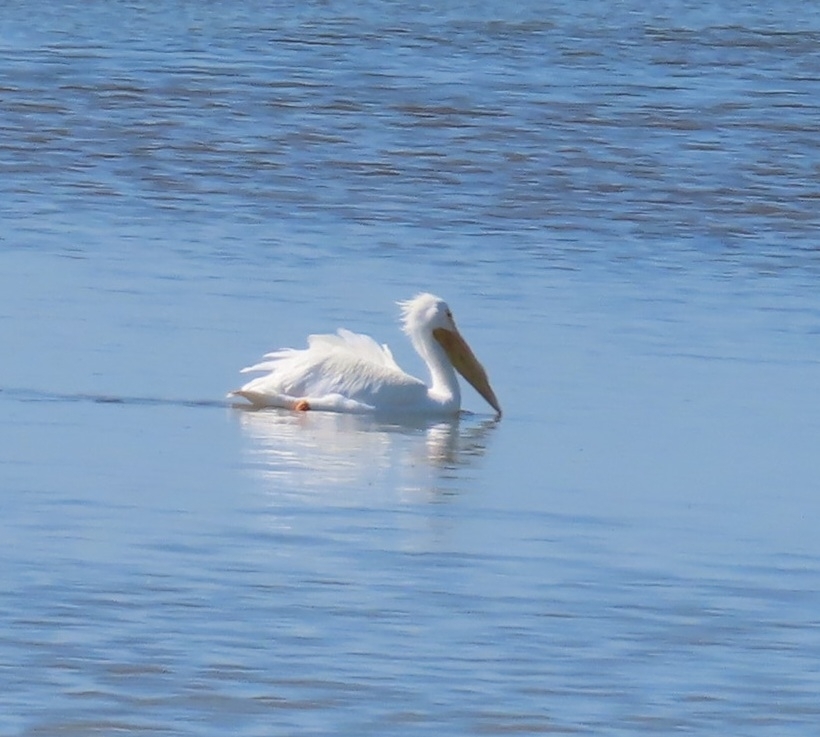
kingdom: Animalia
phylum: Chordata
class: Aves
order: Pelecaniformes
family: Pelecanidae
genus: Pelecanus
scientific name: Pelecanus erythrorhynchos
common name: American white pelican
